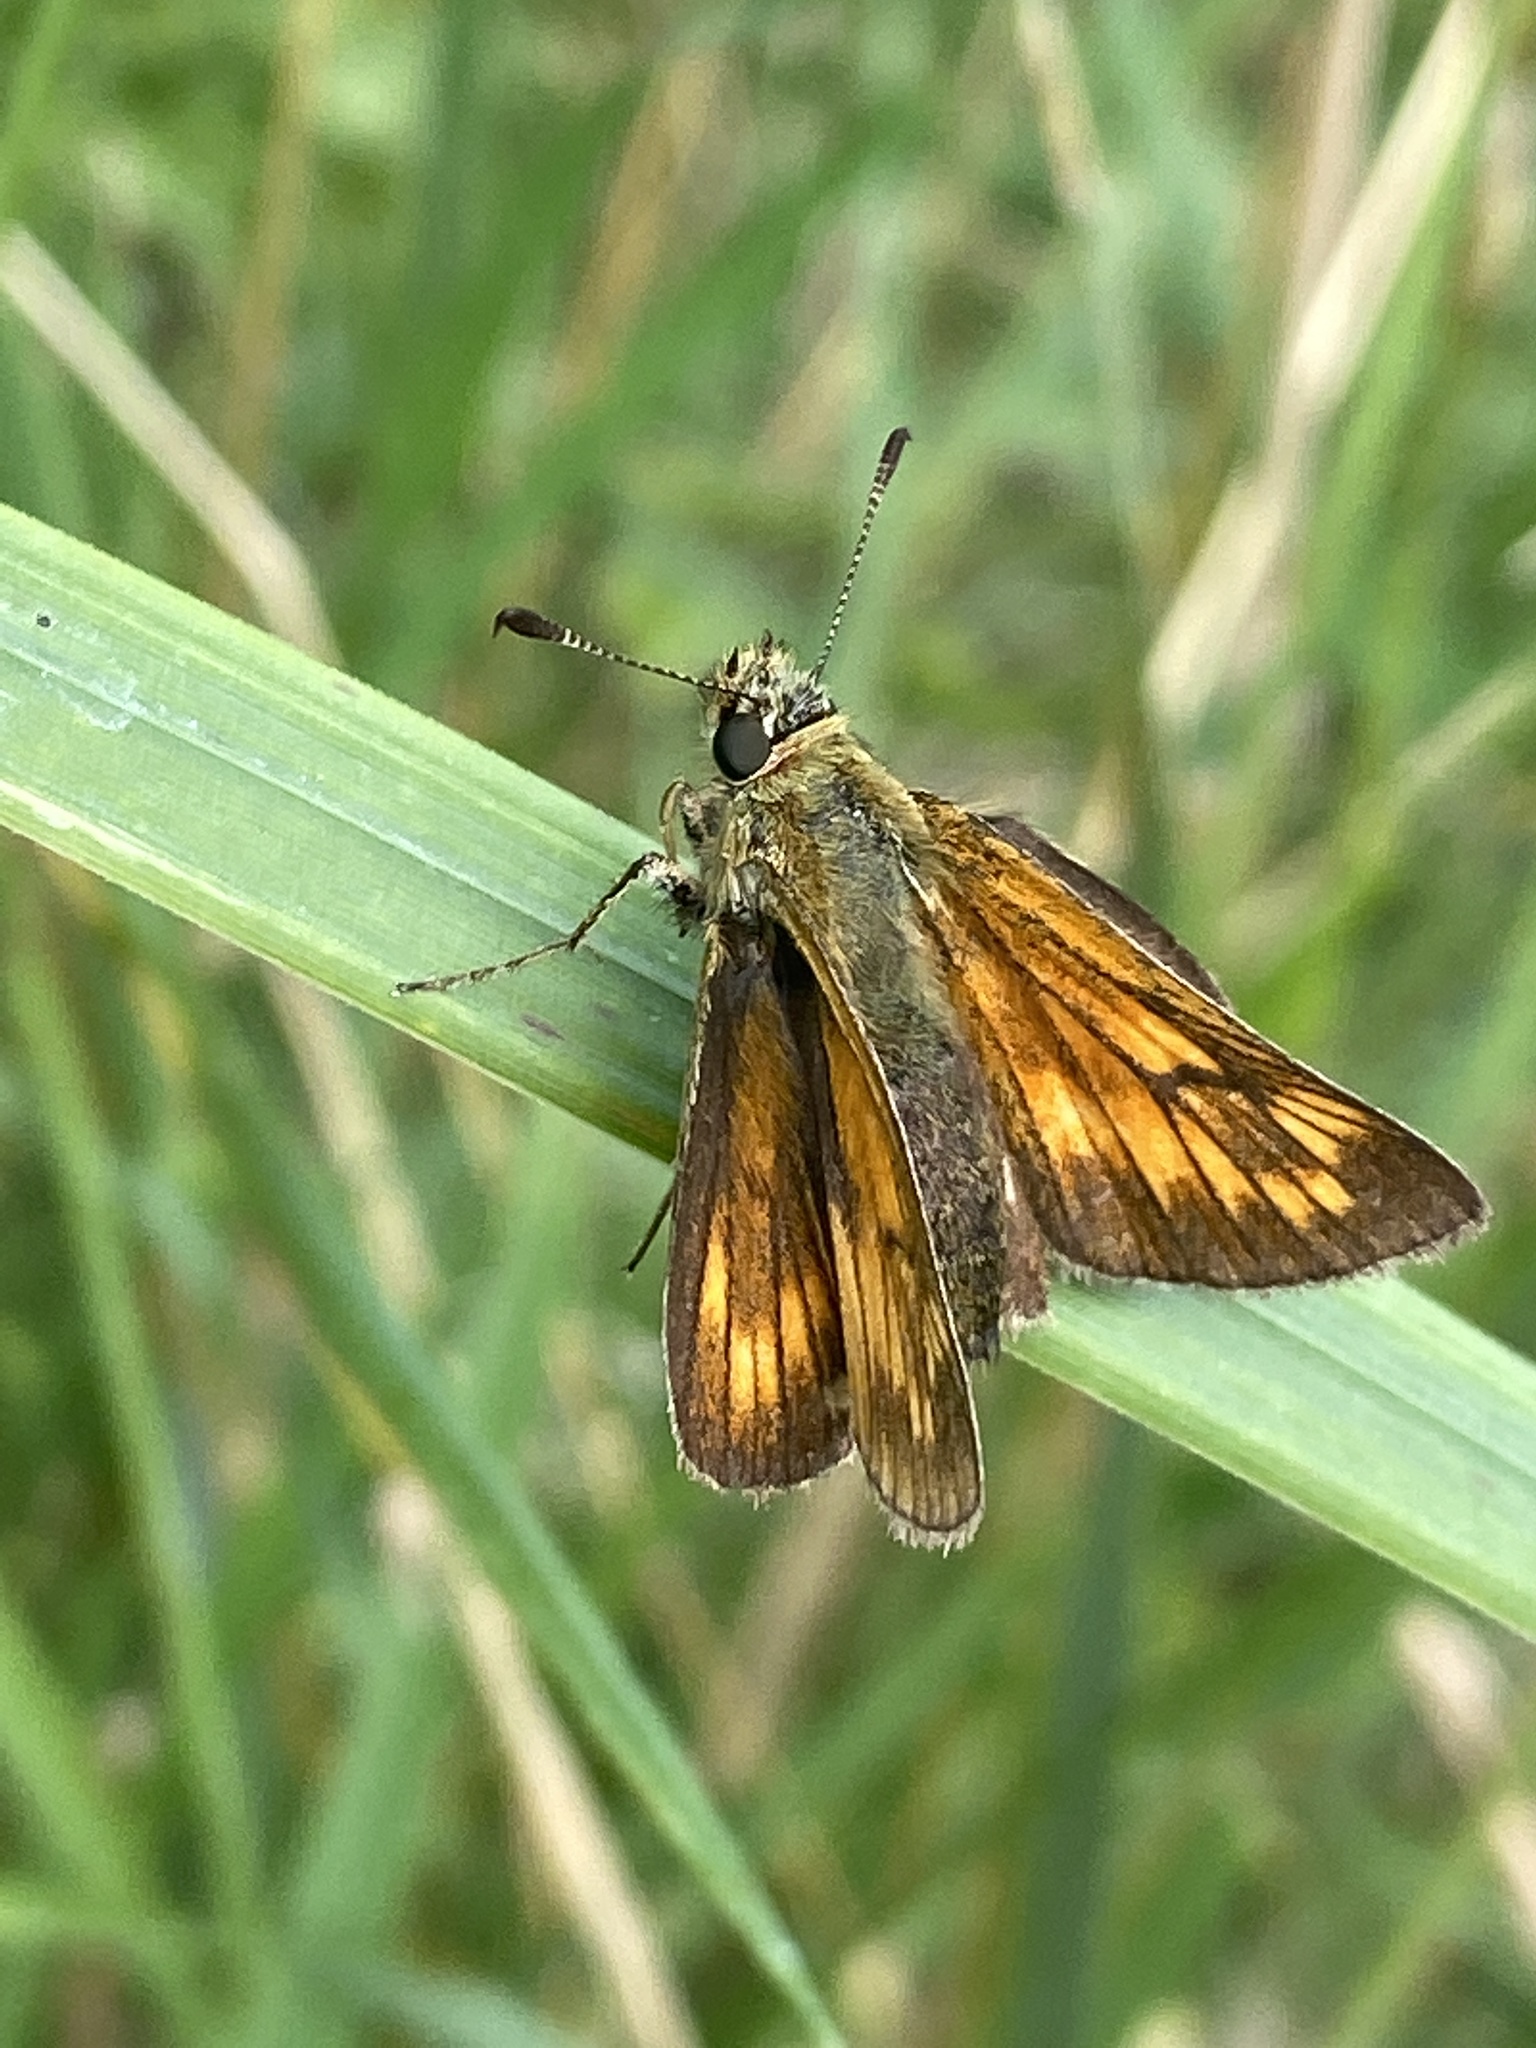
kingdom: Animalia
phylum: Arthropoda
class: Insecta
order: Lepidoptera
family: Hesperiidae
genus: Ochlodes
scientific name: Ochlodes venata
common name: Large skipper
